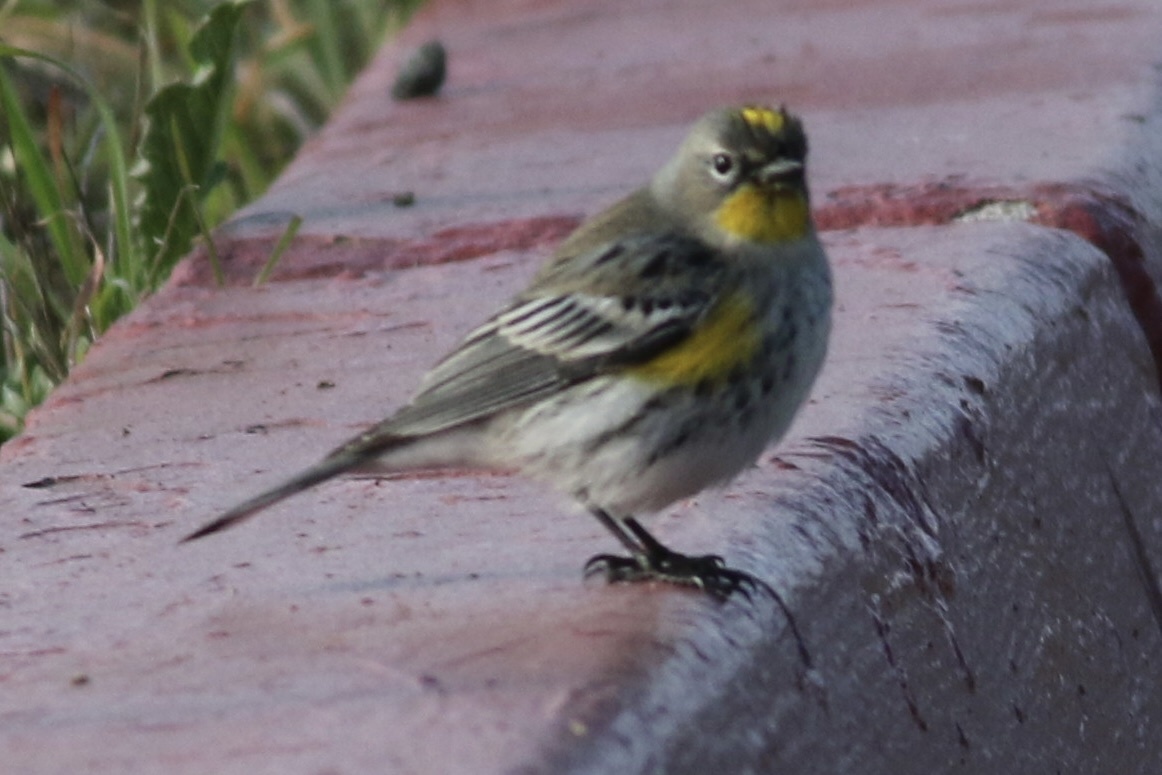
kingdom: Animalia
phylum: Chordata
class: Aves
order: Passeriformes
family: Parulidae
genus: Setophaga
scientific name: Setophaga coronata
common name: Myrtle warbler
